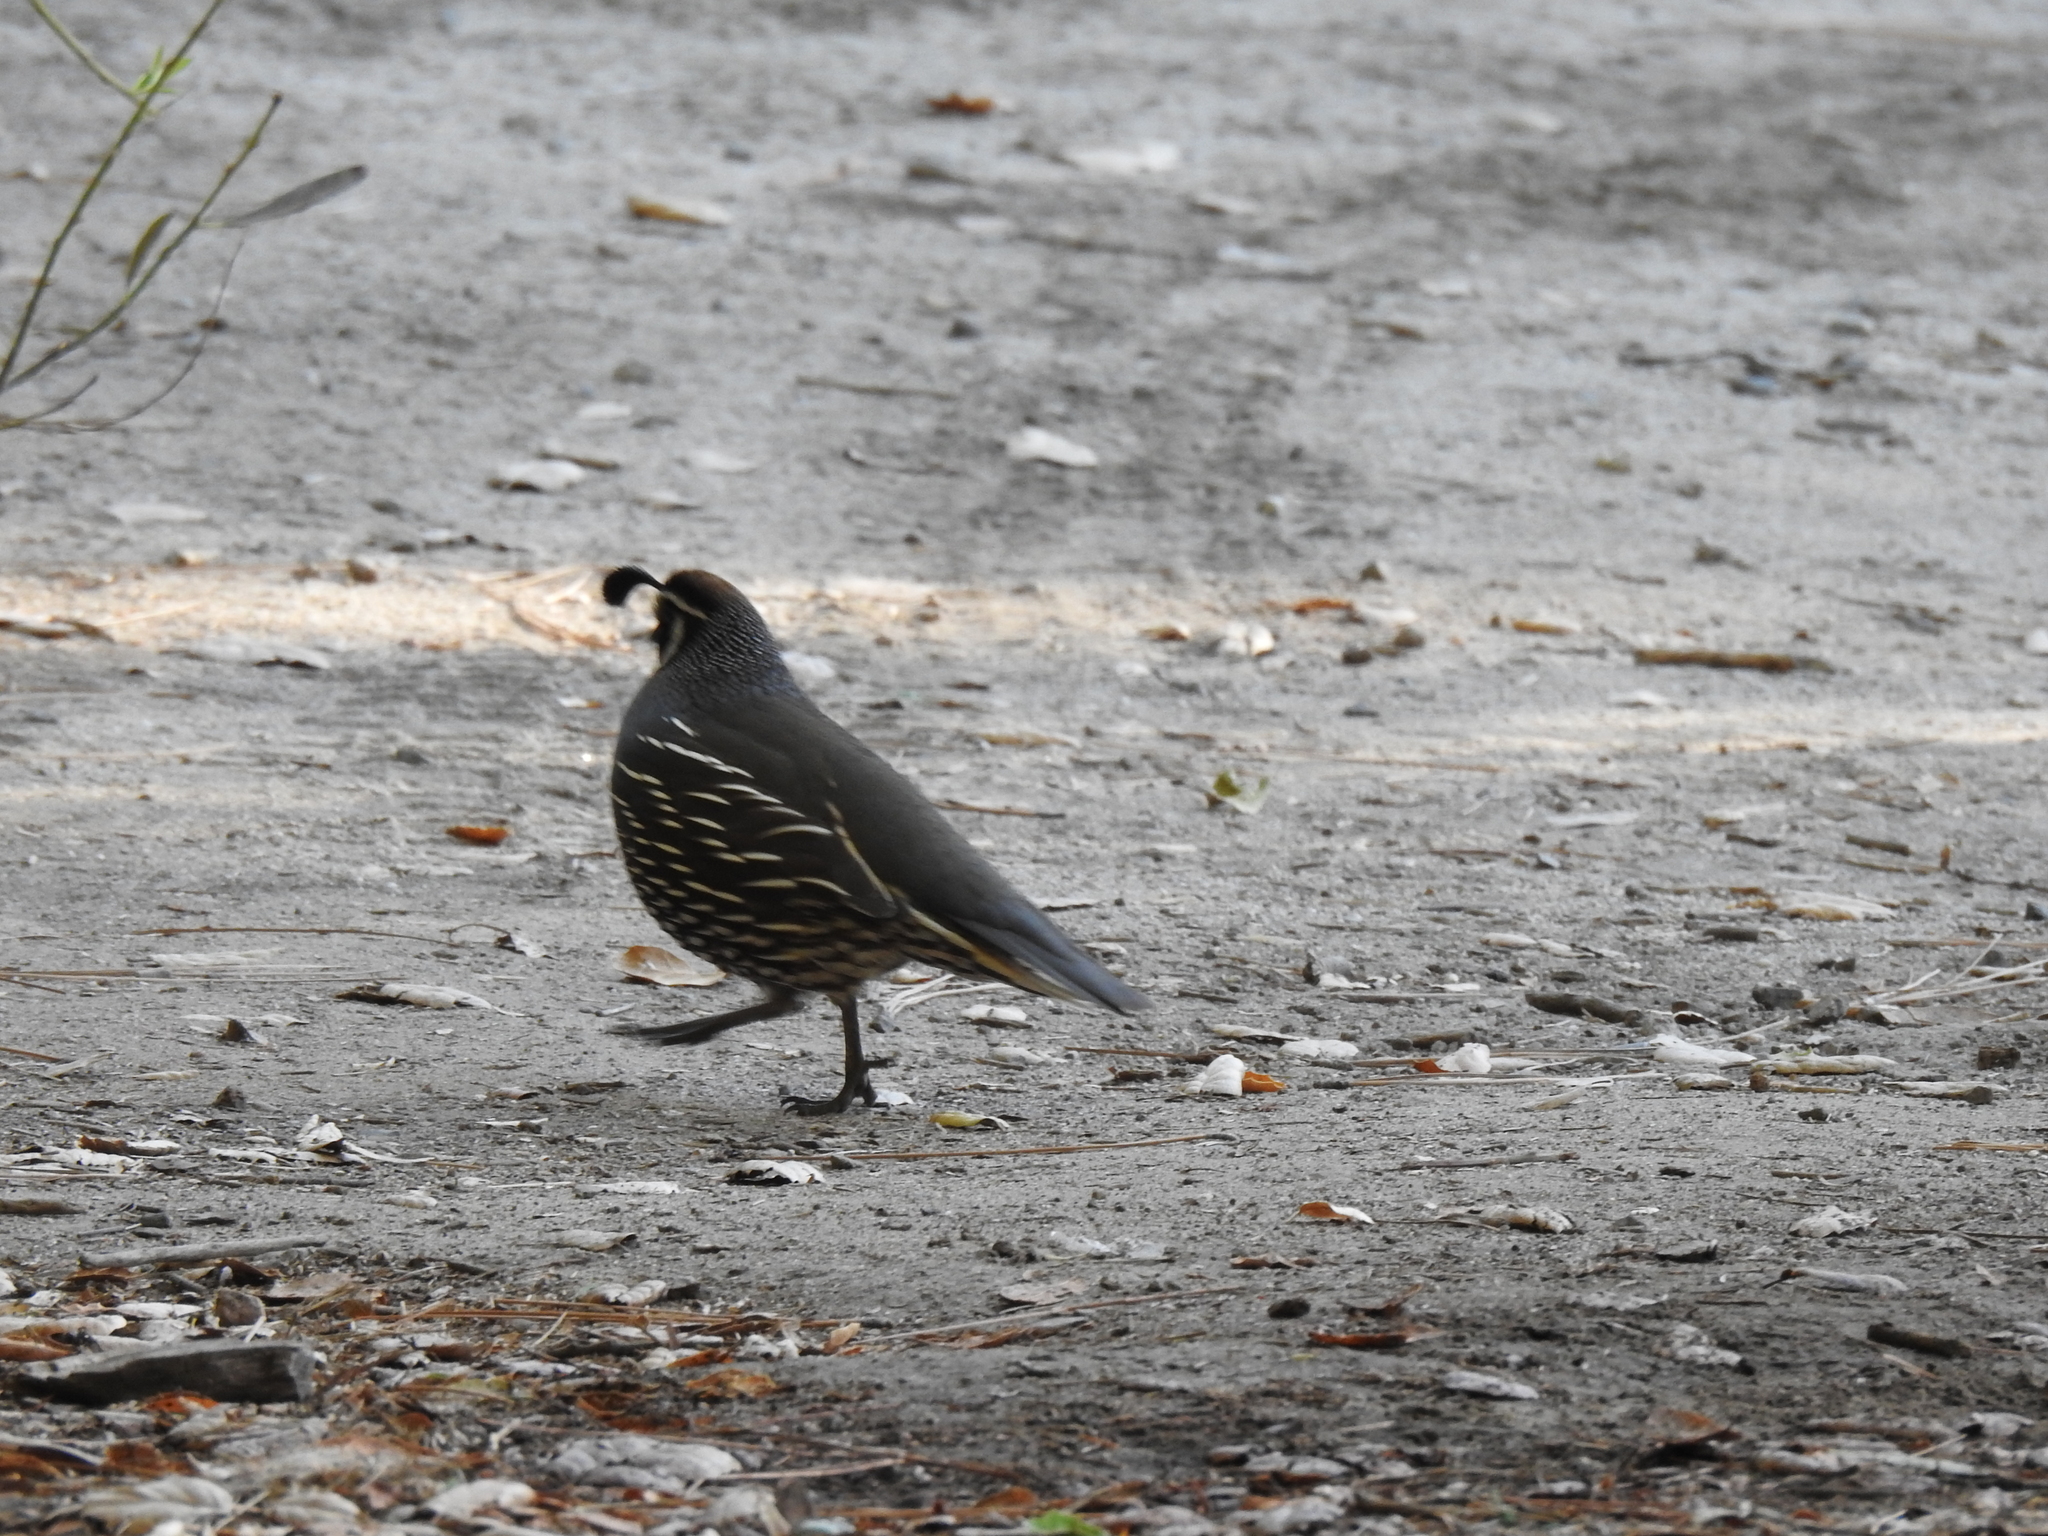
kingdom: Animalia
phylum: Chordata
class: Aves
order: Galliformes
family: Odontophoridae
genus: Callipepla
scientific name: Callipepla californica
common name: California quail
